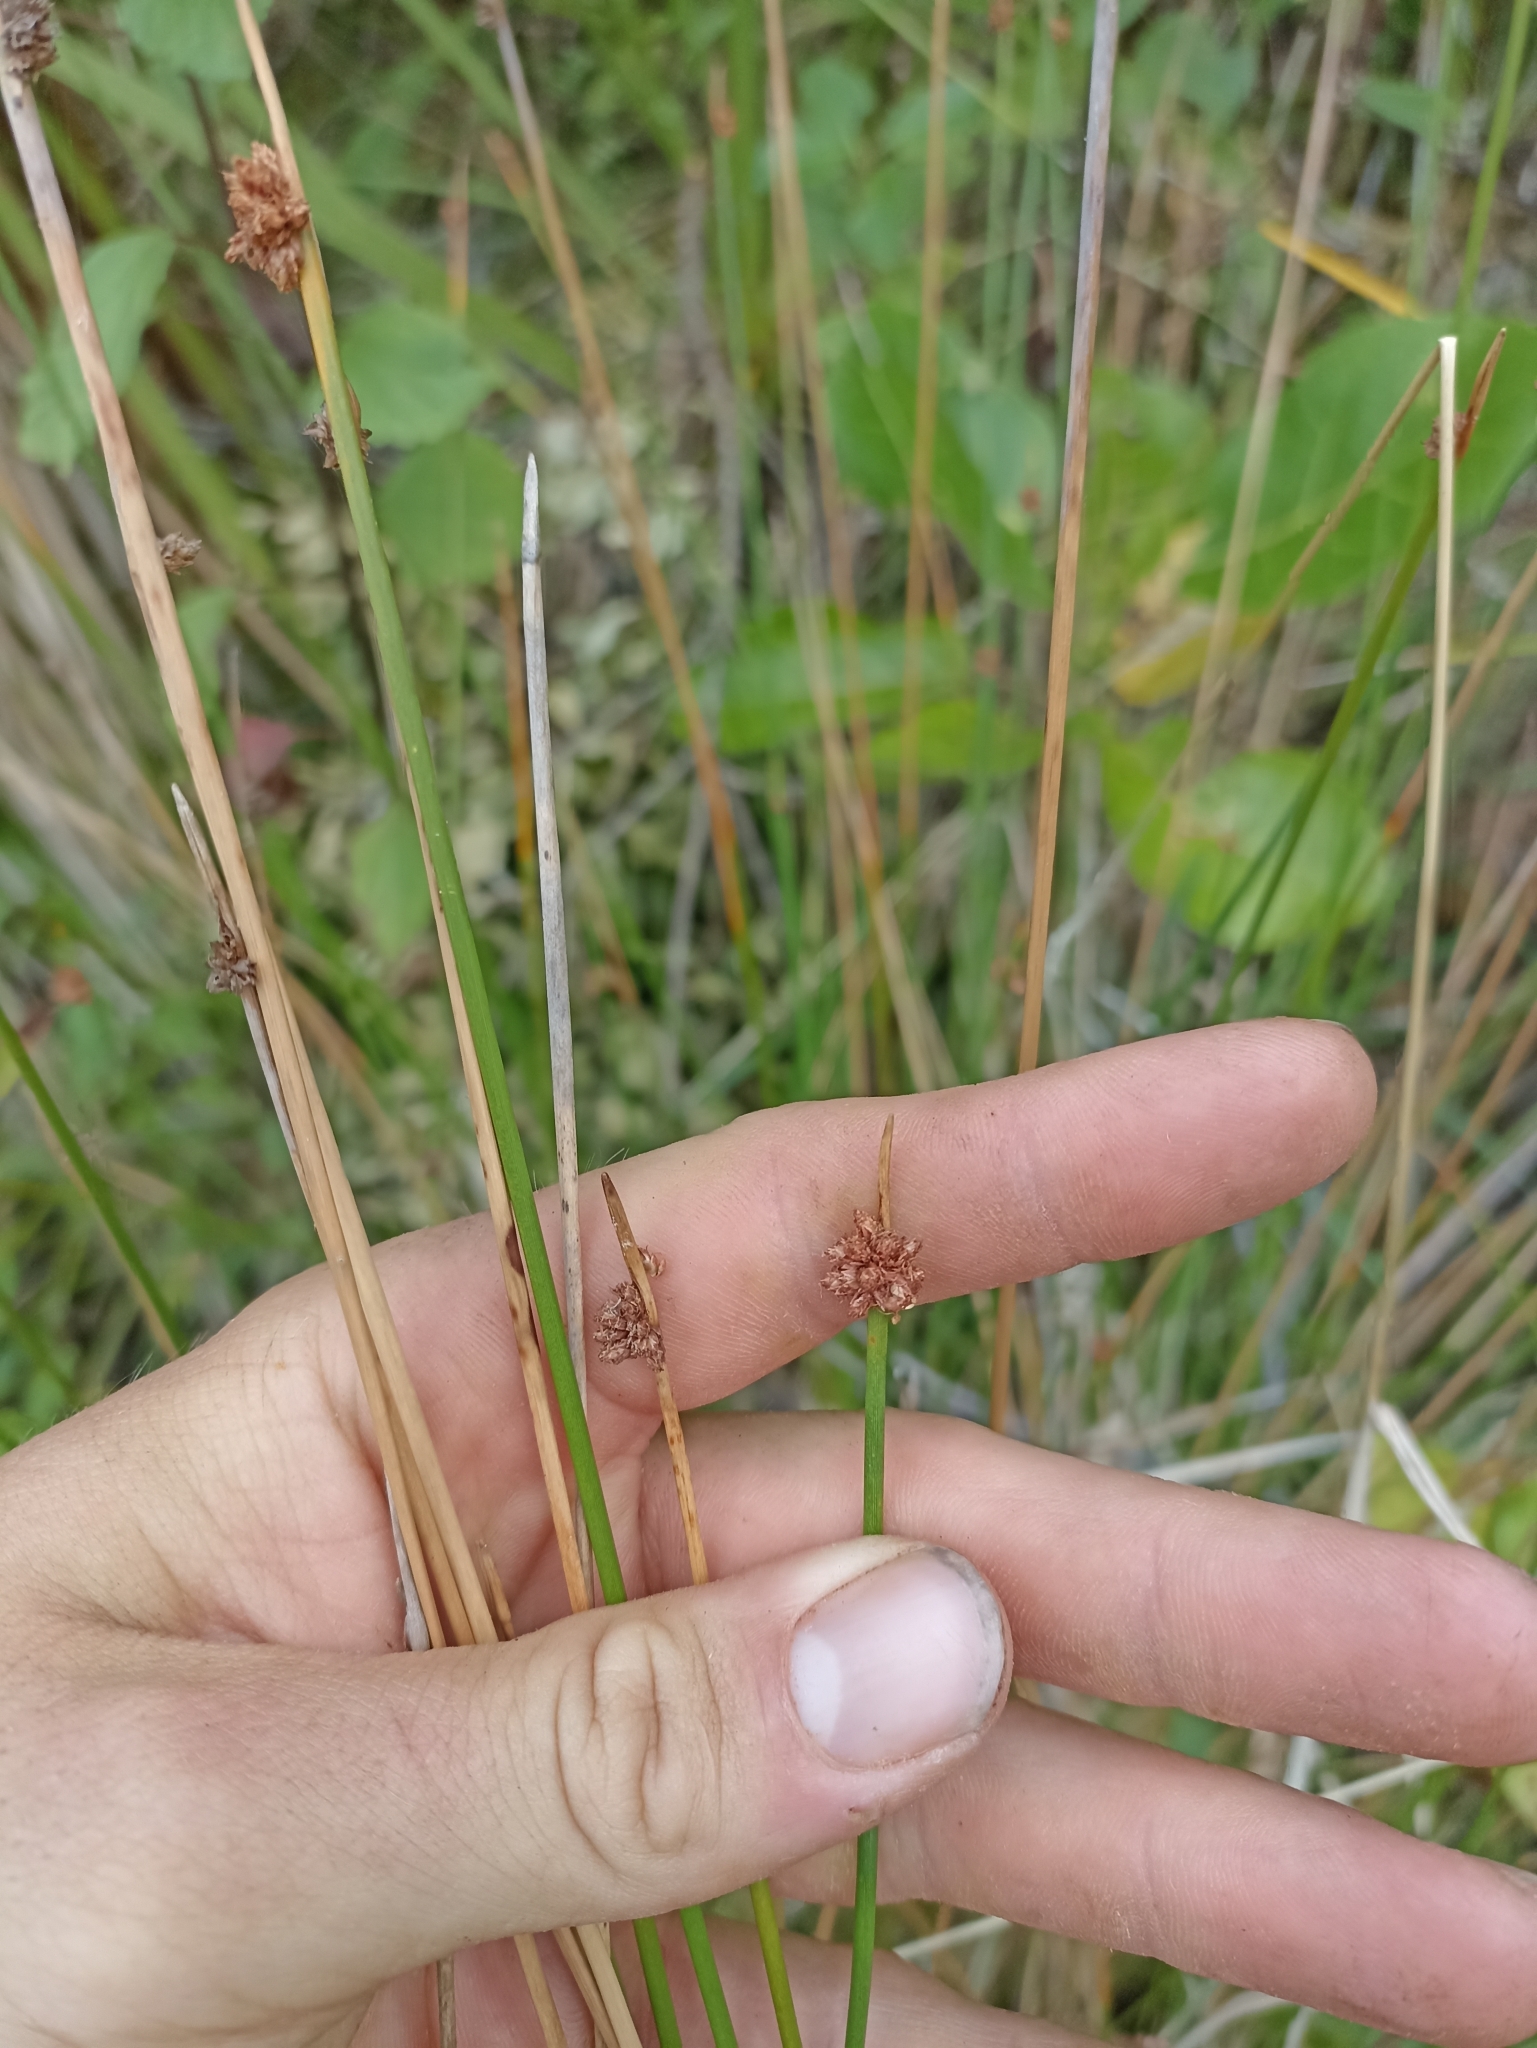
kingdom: Plantae
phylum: Tracheophyta
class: Liliopsida
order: Poales
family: Cyperaceae
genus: Ficinia
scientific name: Ficinia nodosa
